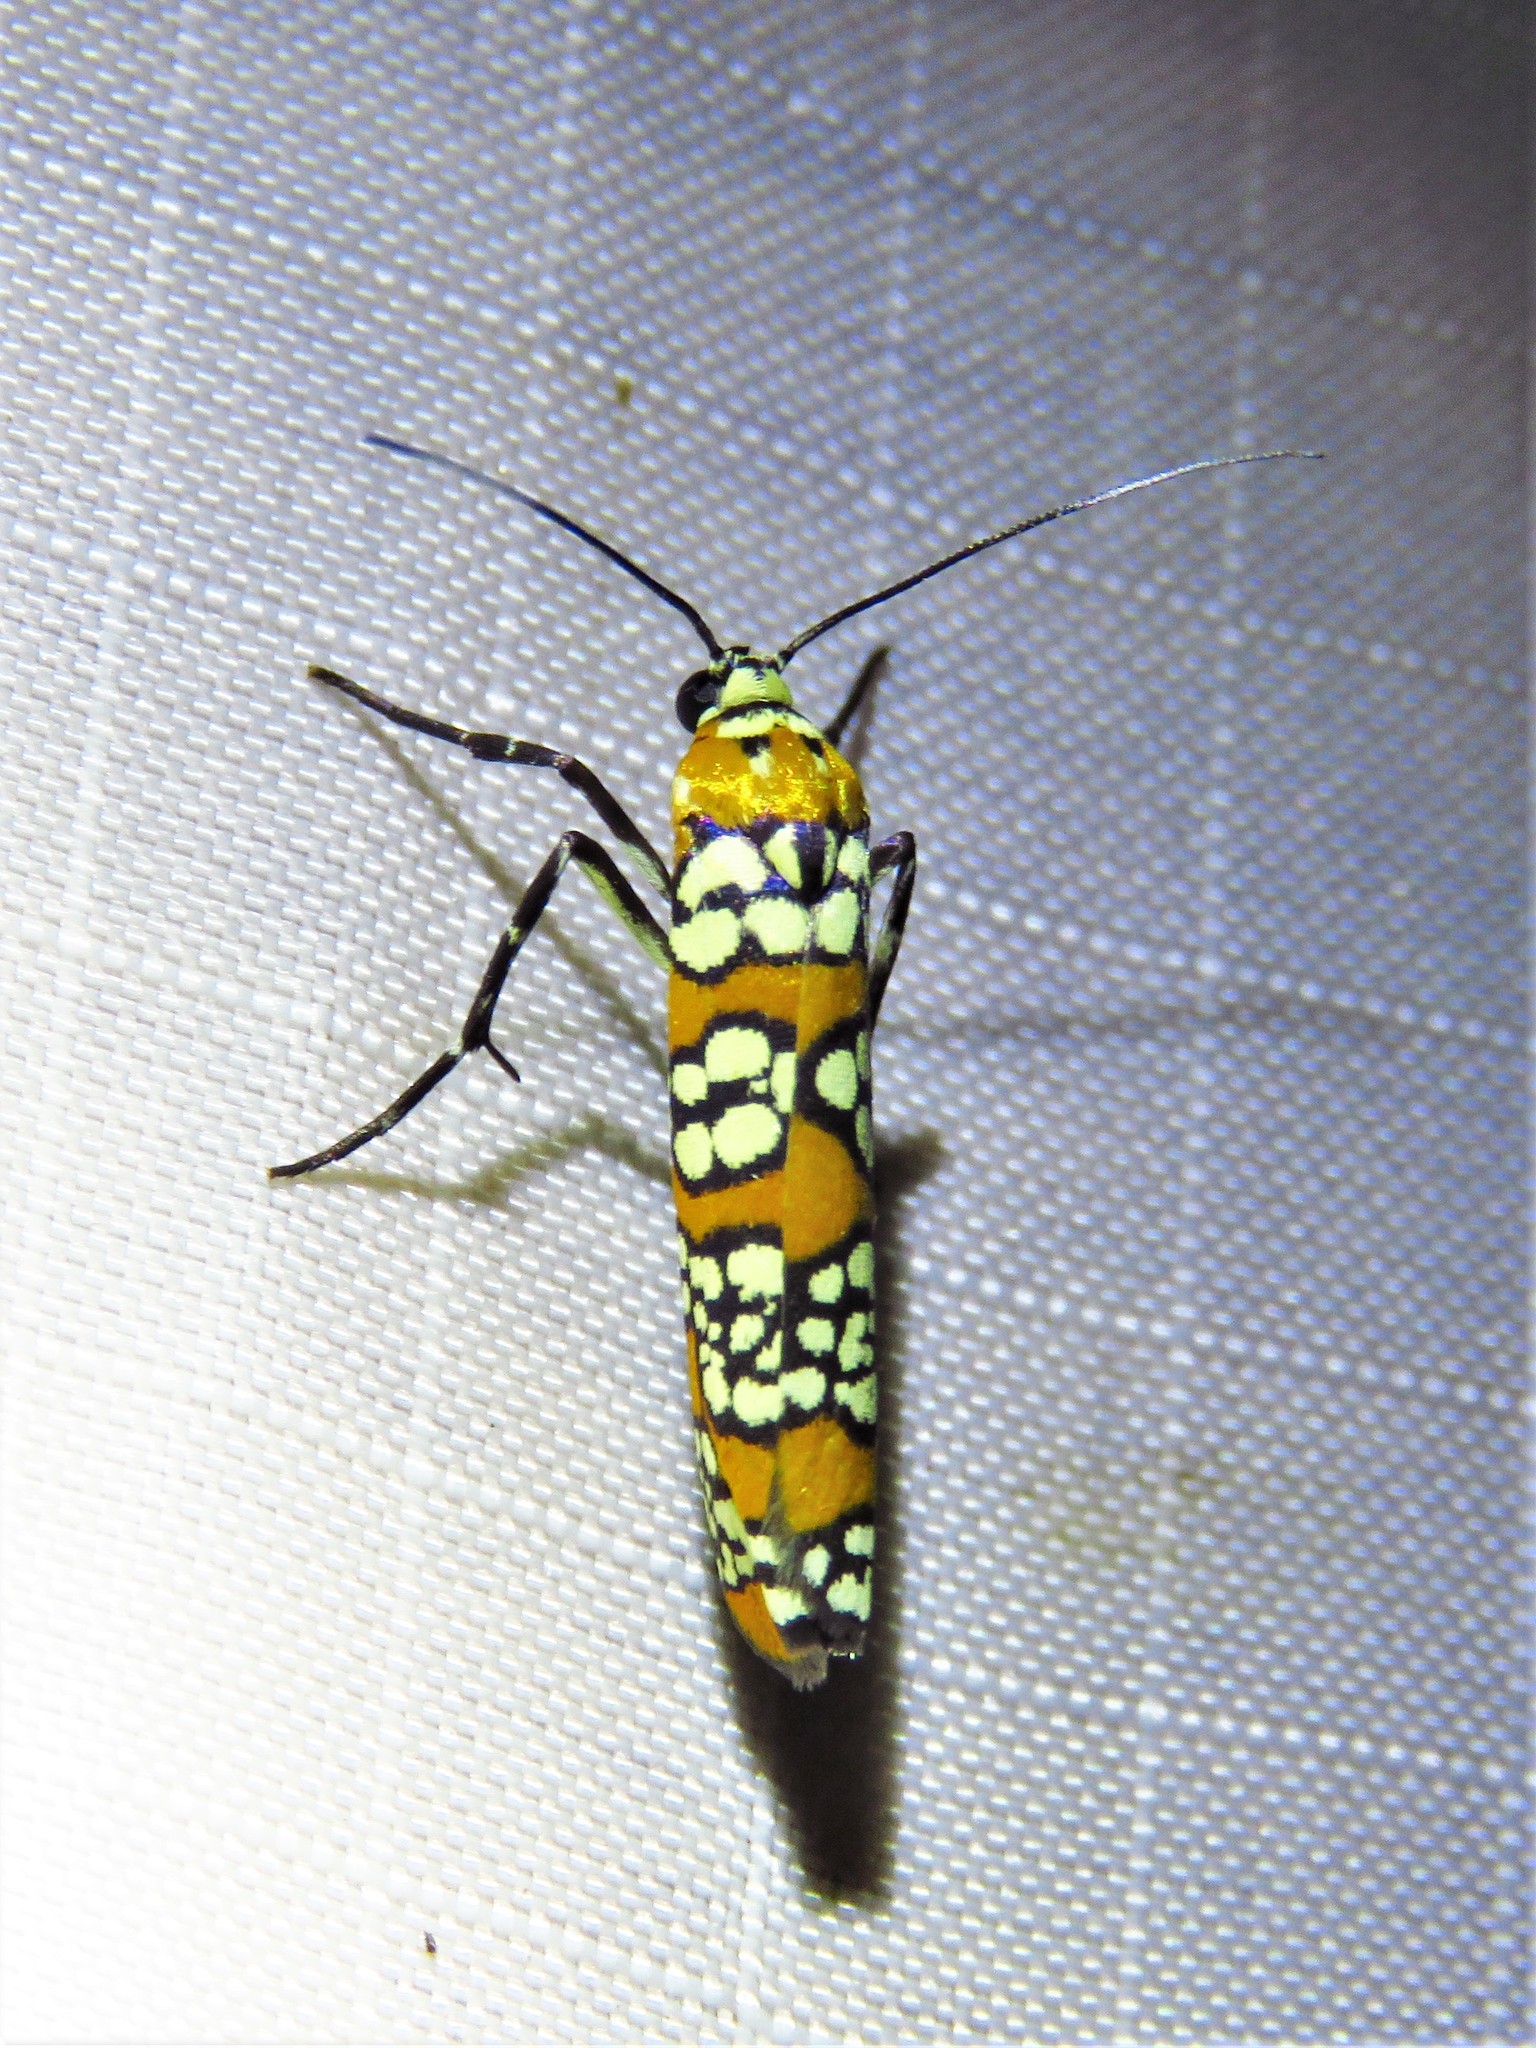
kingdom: Animalia
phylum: Arthropoda
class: Insecta
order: Lepidoptera
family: Attevidae
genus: Atteva
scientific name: Atteva punctella
